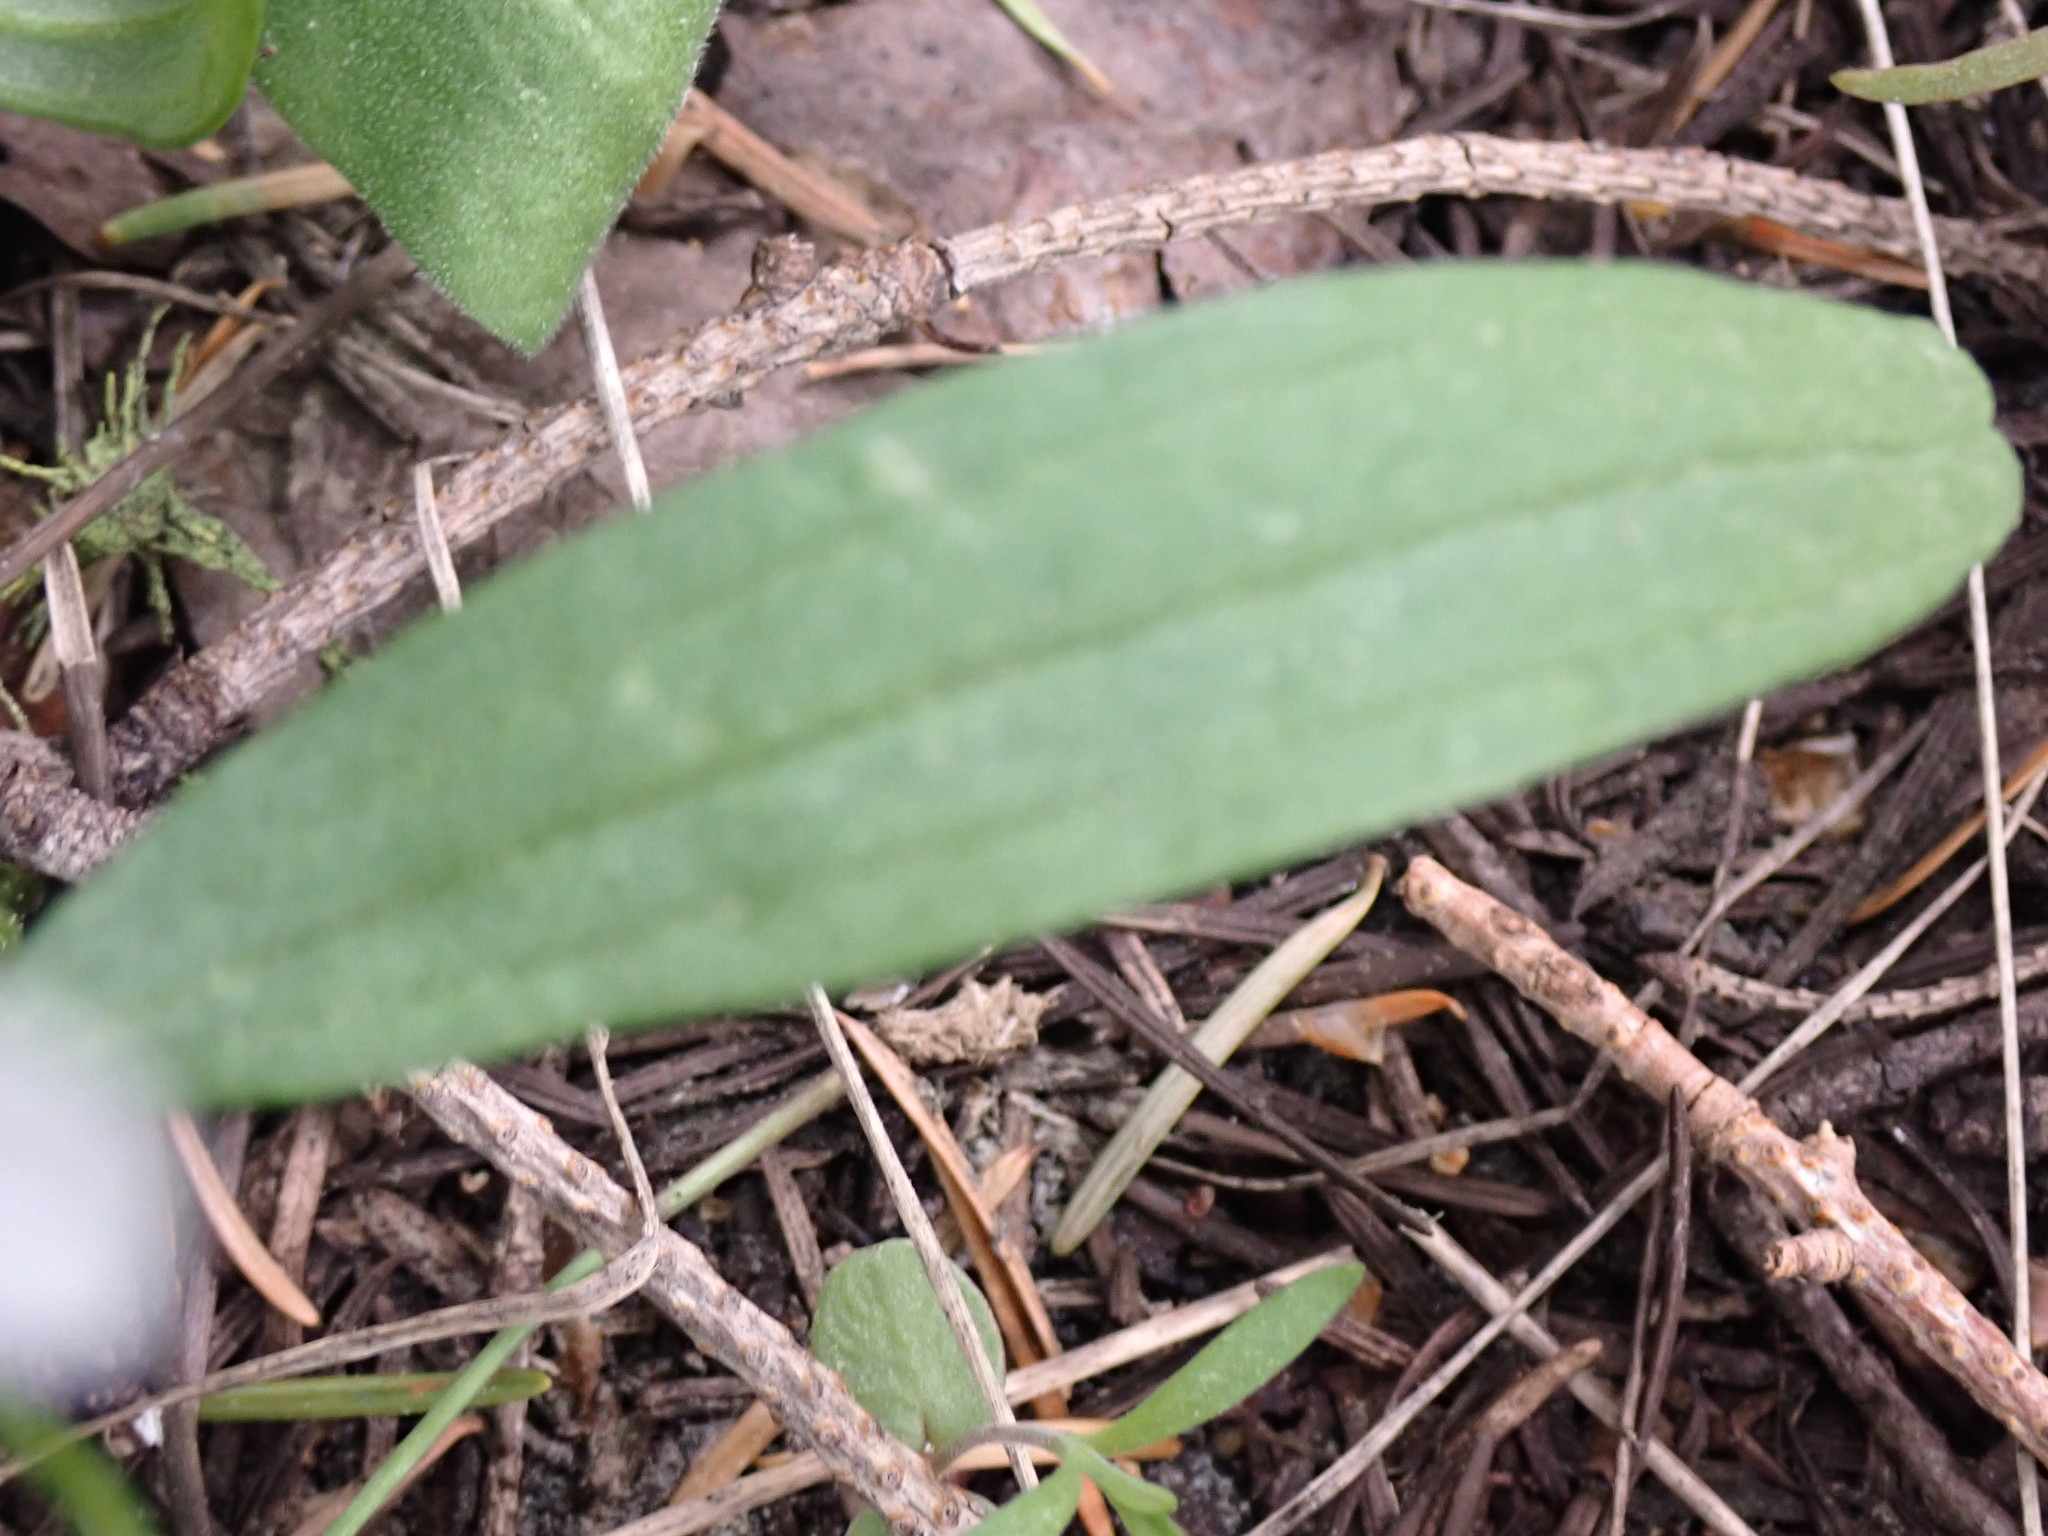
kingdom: Plantae
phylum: Tracheophyta
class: Magnoliopsida
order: Caryophyllales
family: Montiaceae
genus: Claytonia
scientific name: Claytonia lanceolata
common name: Western spring-beauty
